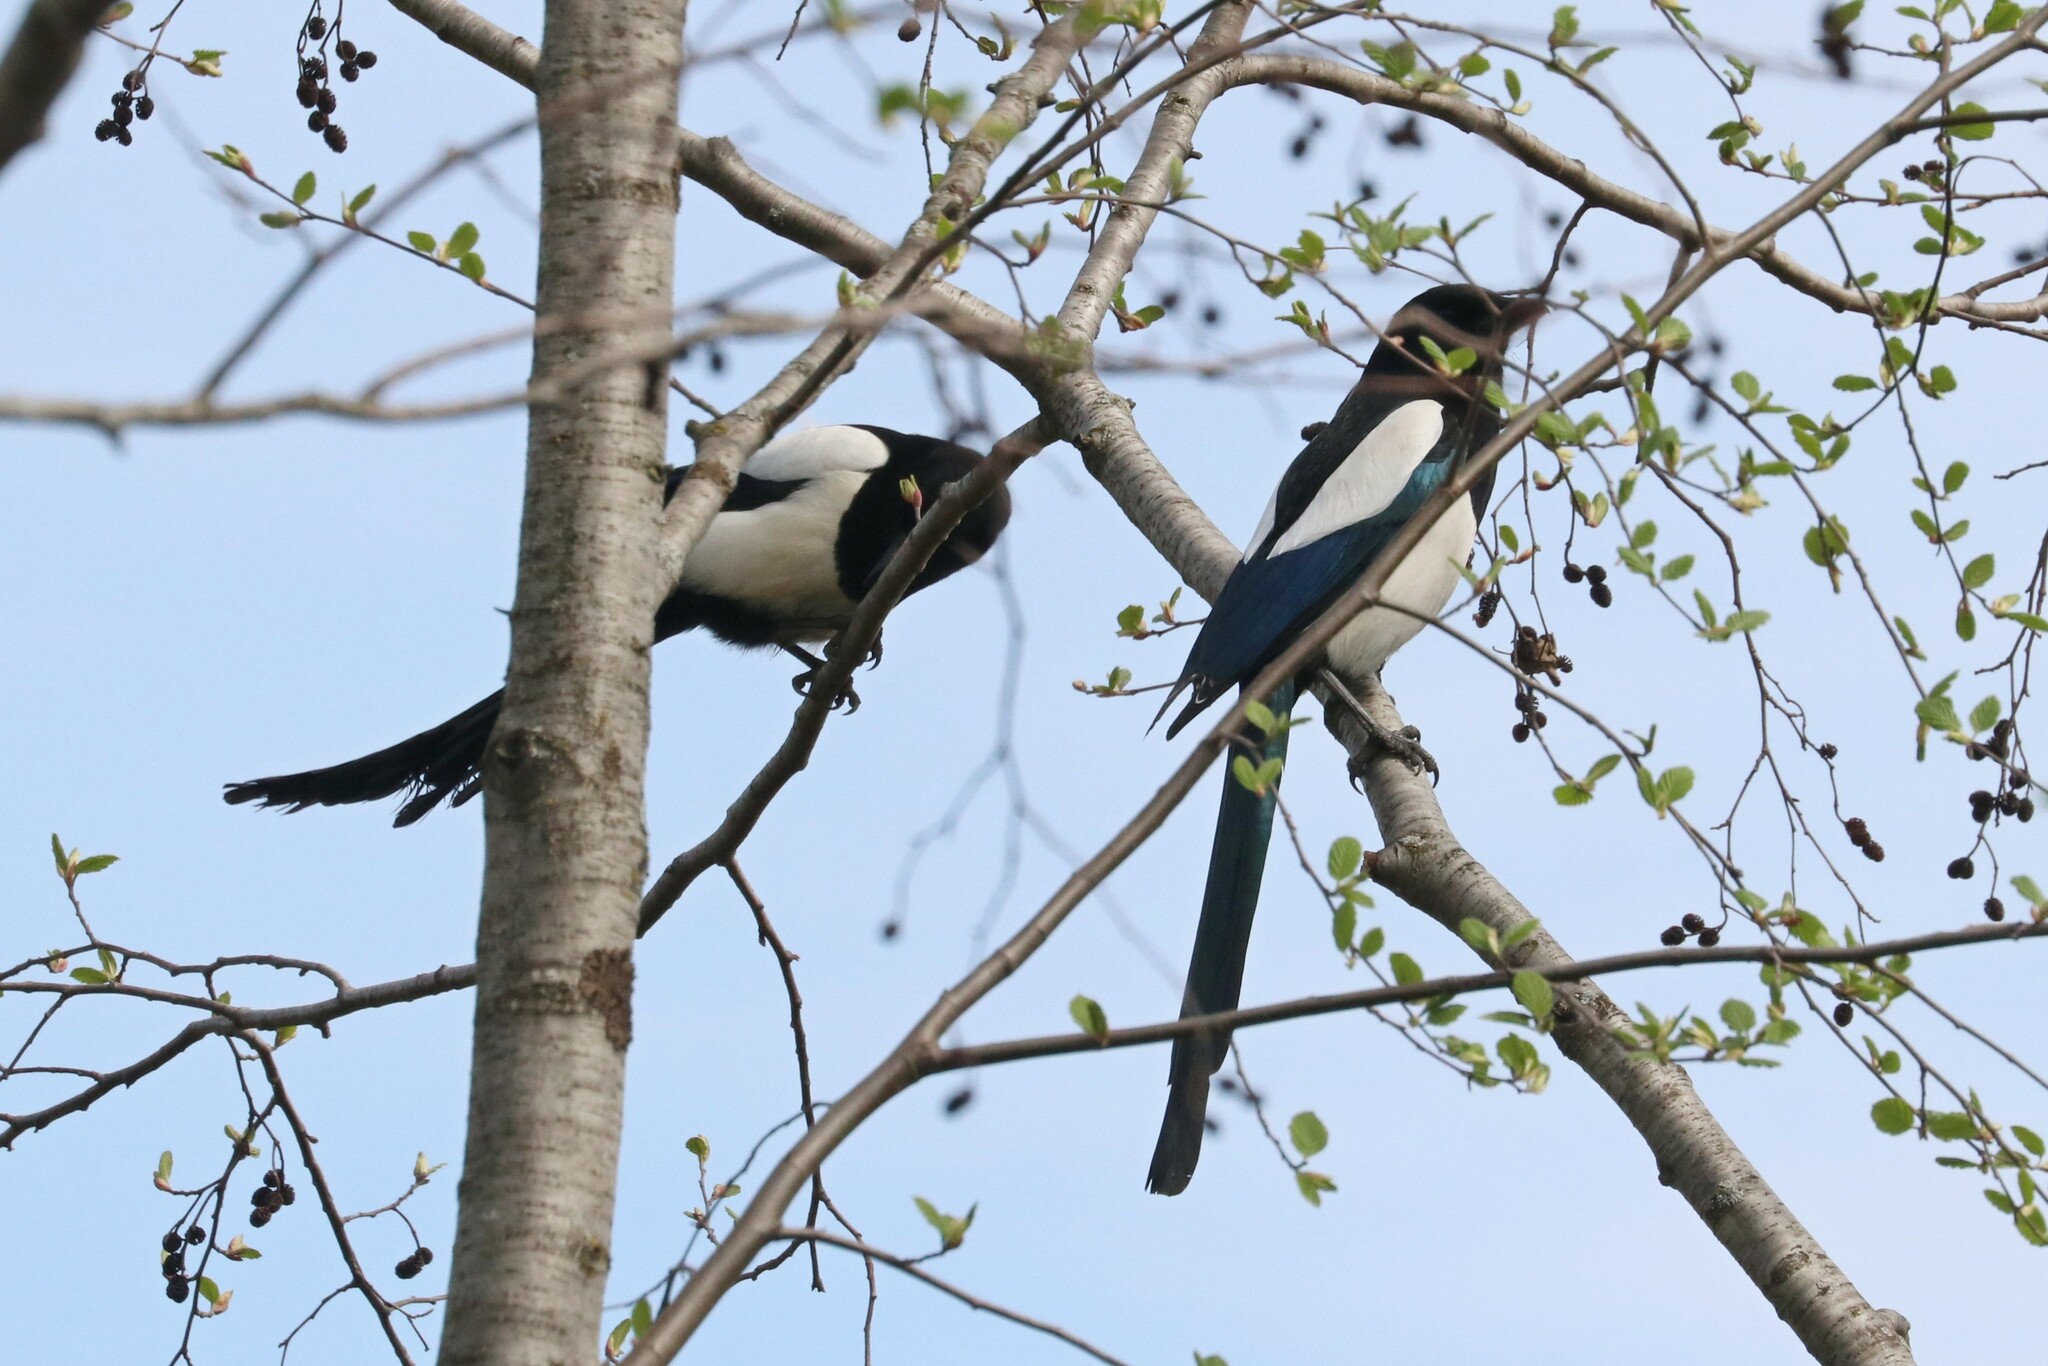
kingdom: Animalia
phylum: Chordata
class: Aves
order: Passeriformes
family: Corvidae
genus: Pica
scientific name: Pica pica
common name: Eurasian magpie
